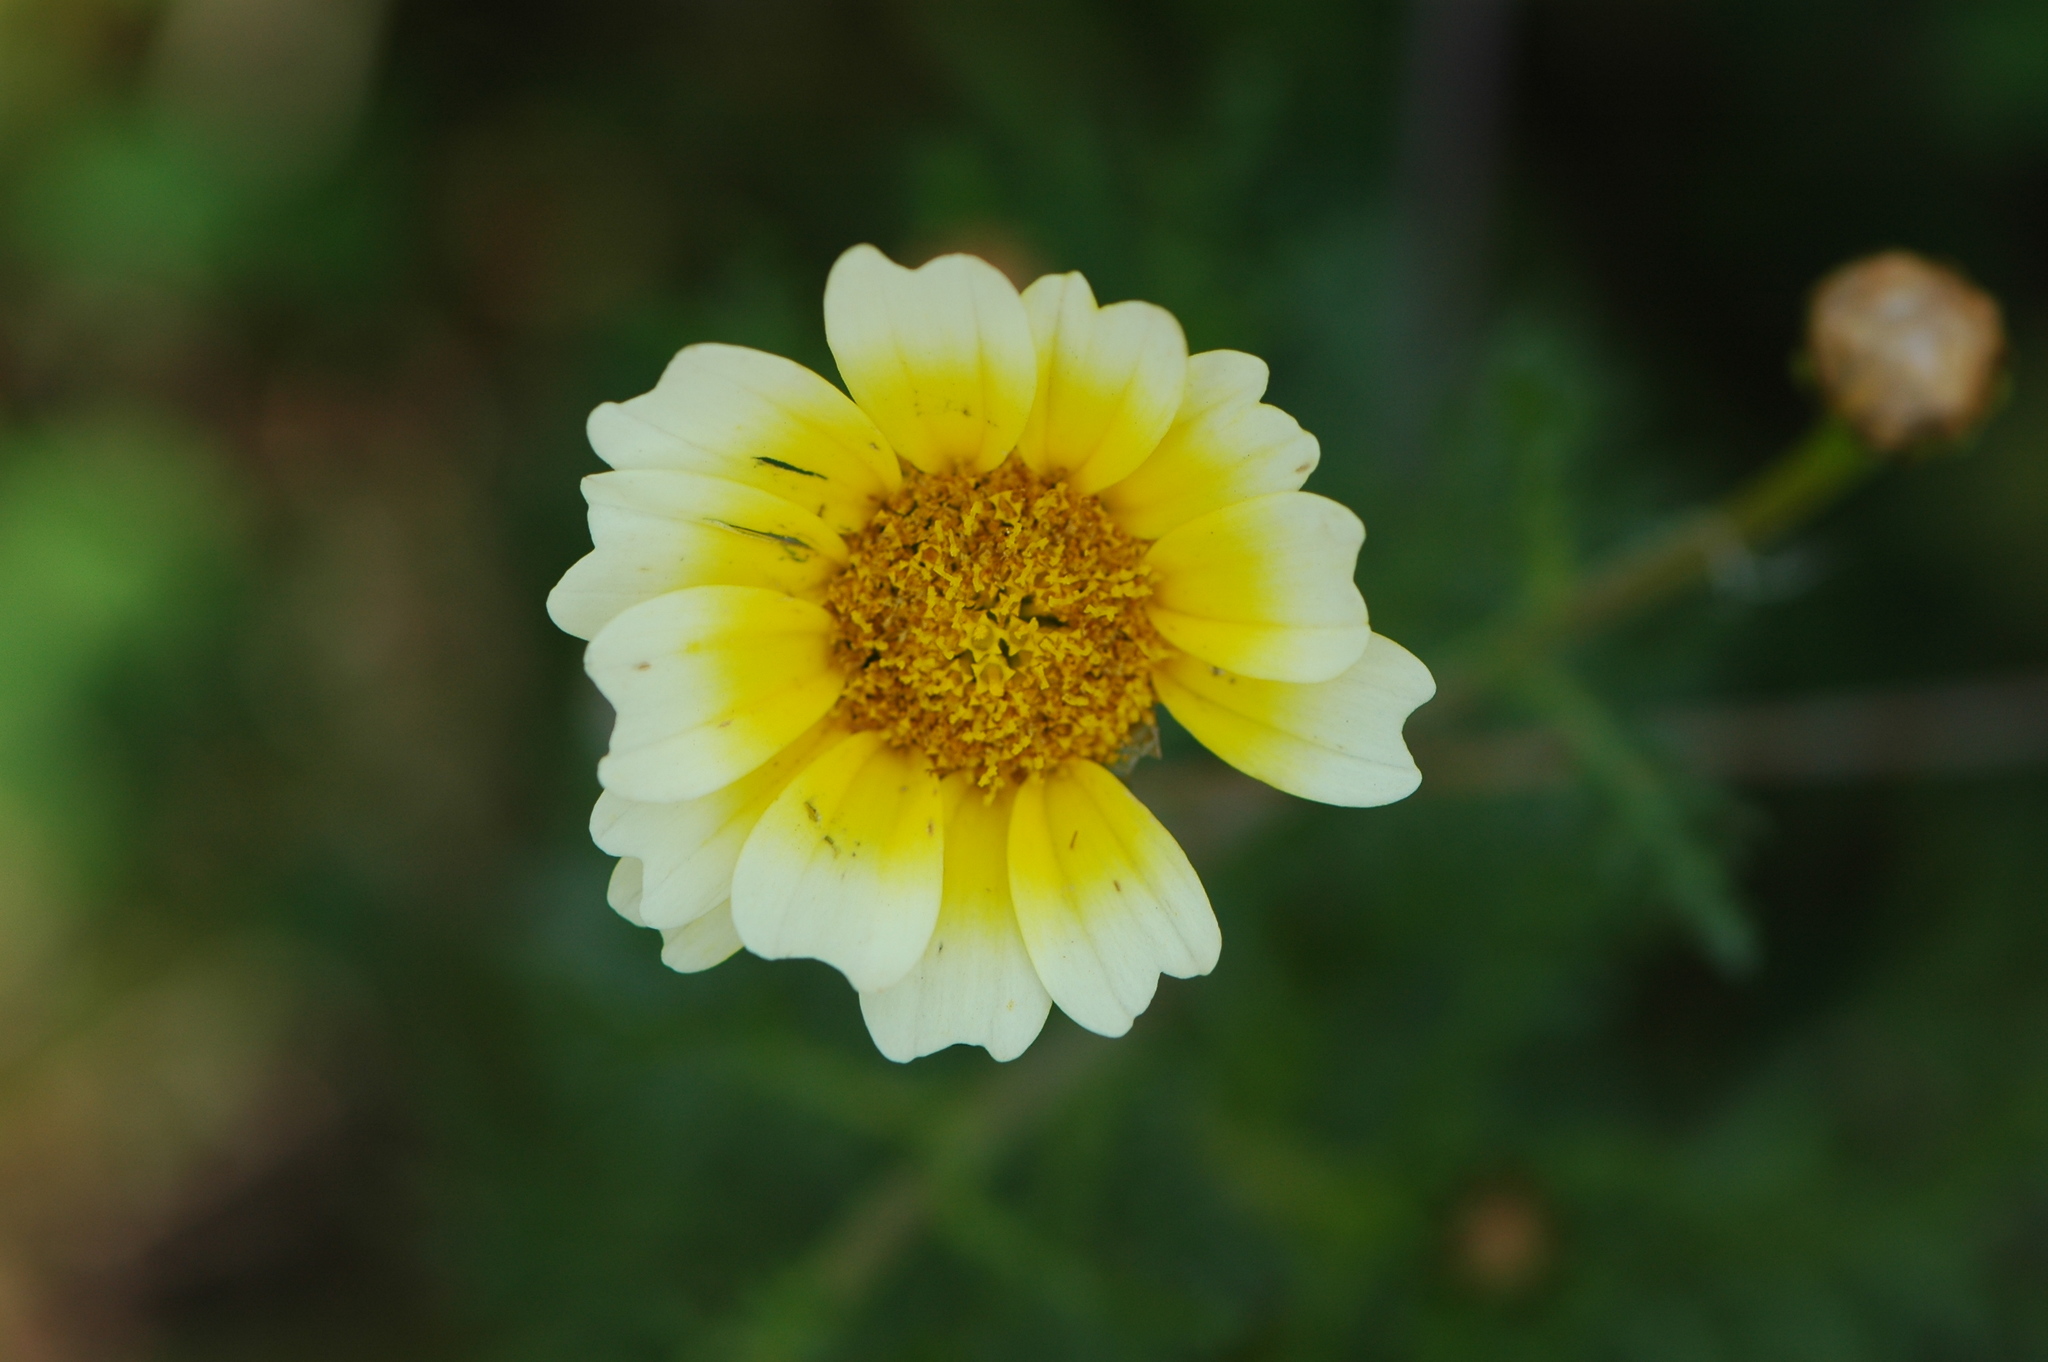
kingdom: Plantae
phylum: Tracheophyta
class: Magnoliopsida
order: Asterales
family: Asteraceae
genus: Glebionis
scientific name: Glebionis coronaria
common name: Crowndaisy
